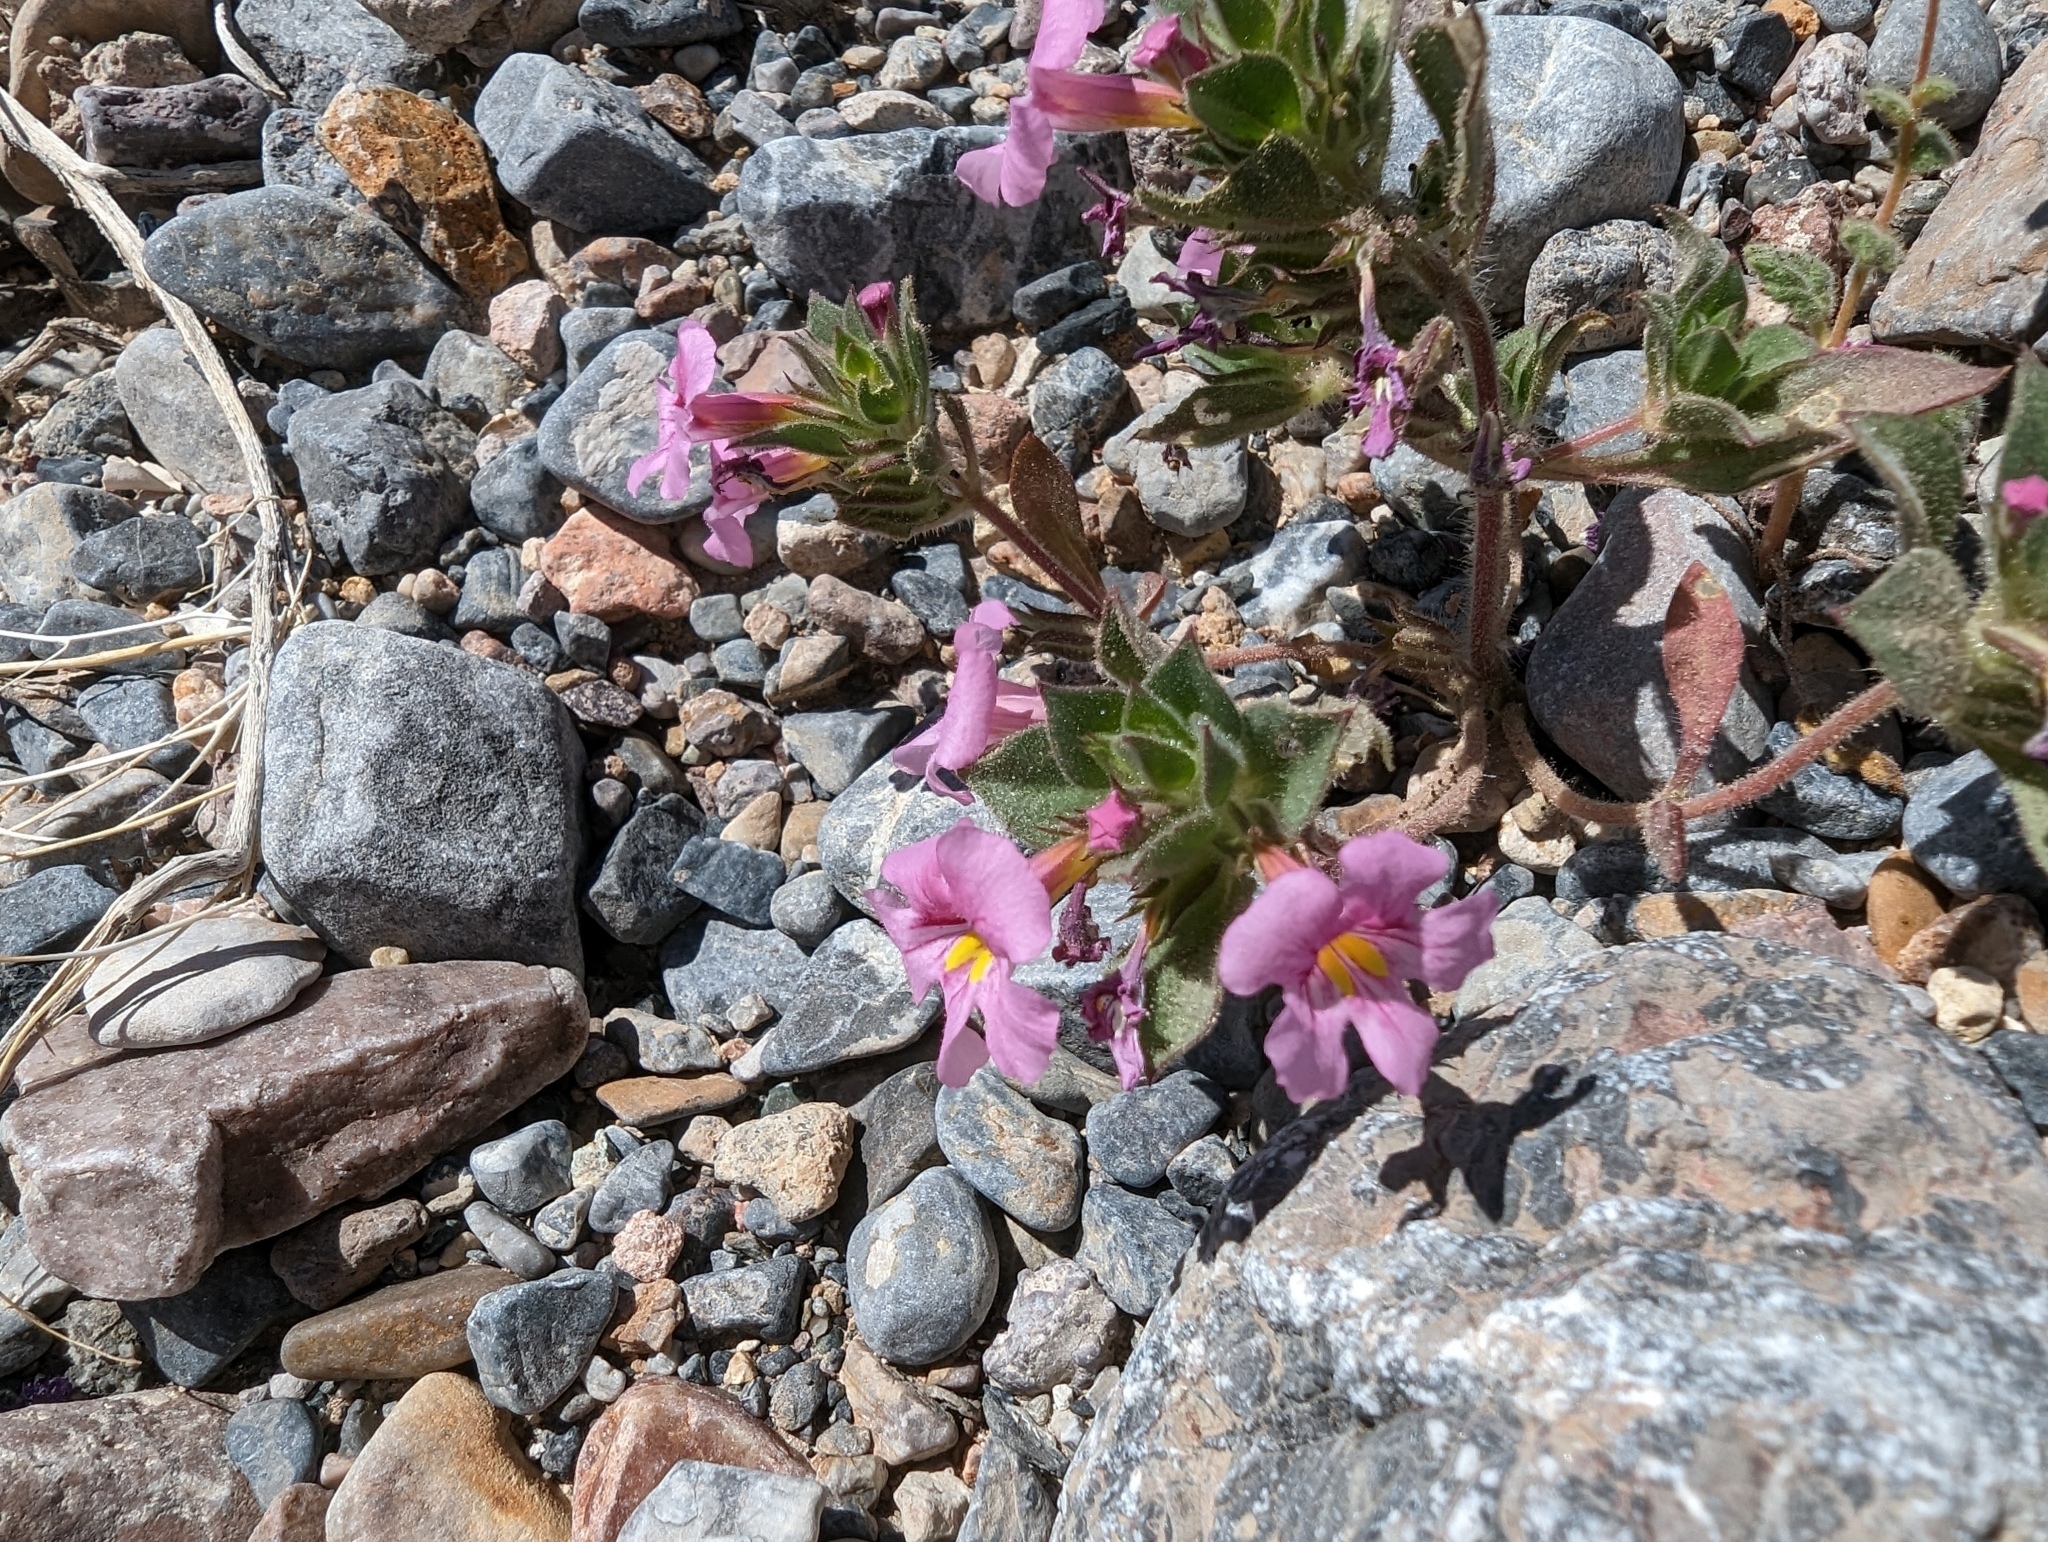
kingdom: Plantae
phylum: Tracheophyta
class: Magnoliopsida
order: Lamiales
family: Phrymaceae
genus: Diplacus
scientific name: Diplacus bigelovii
